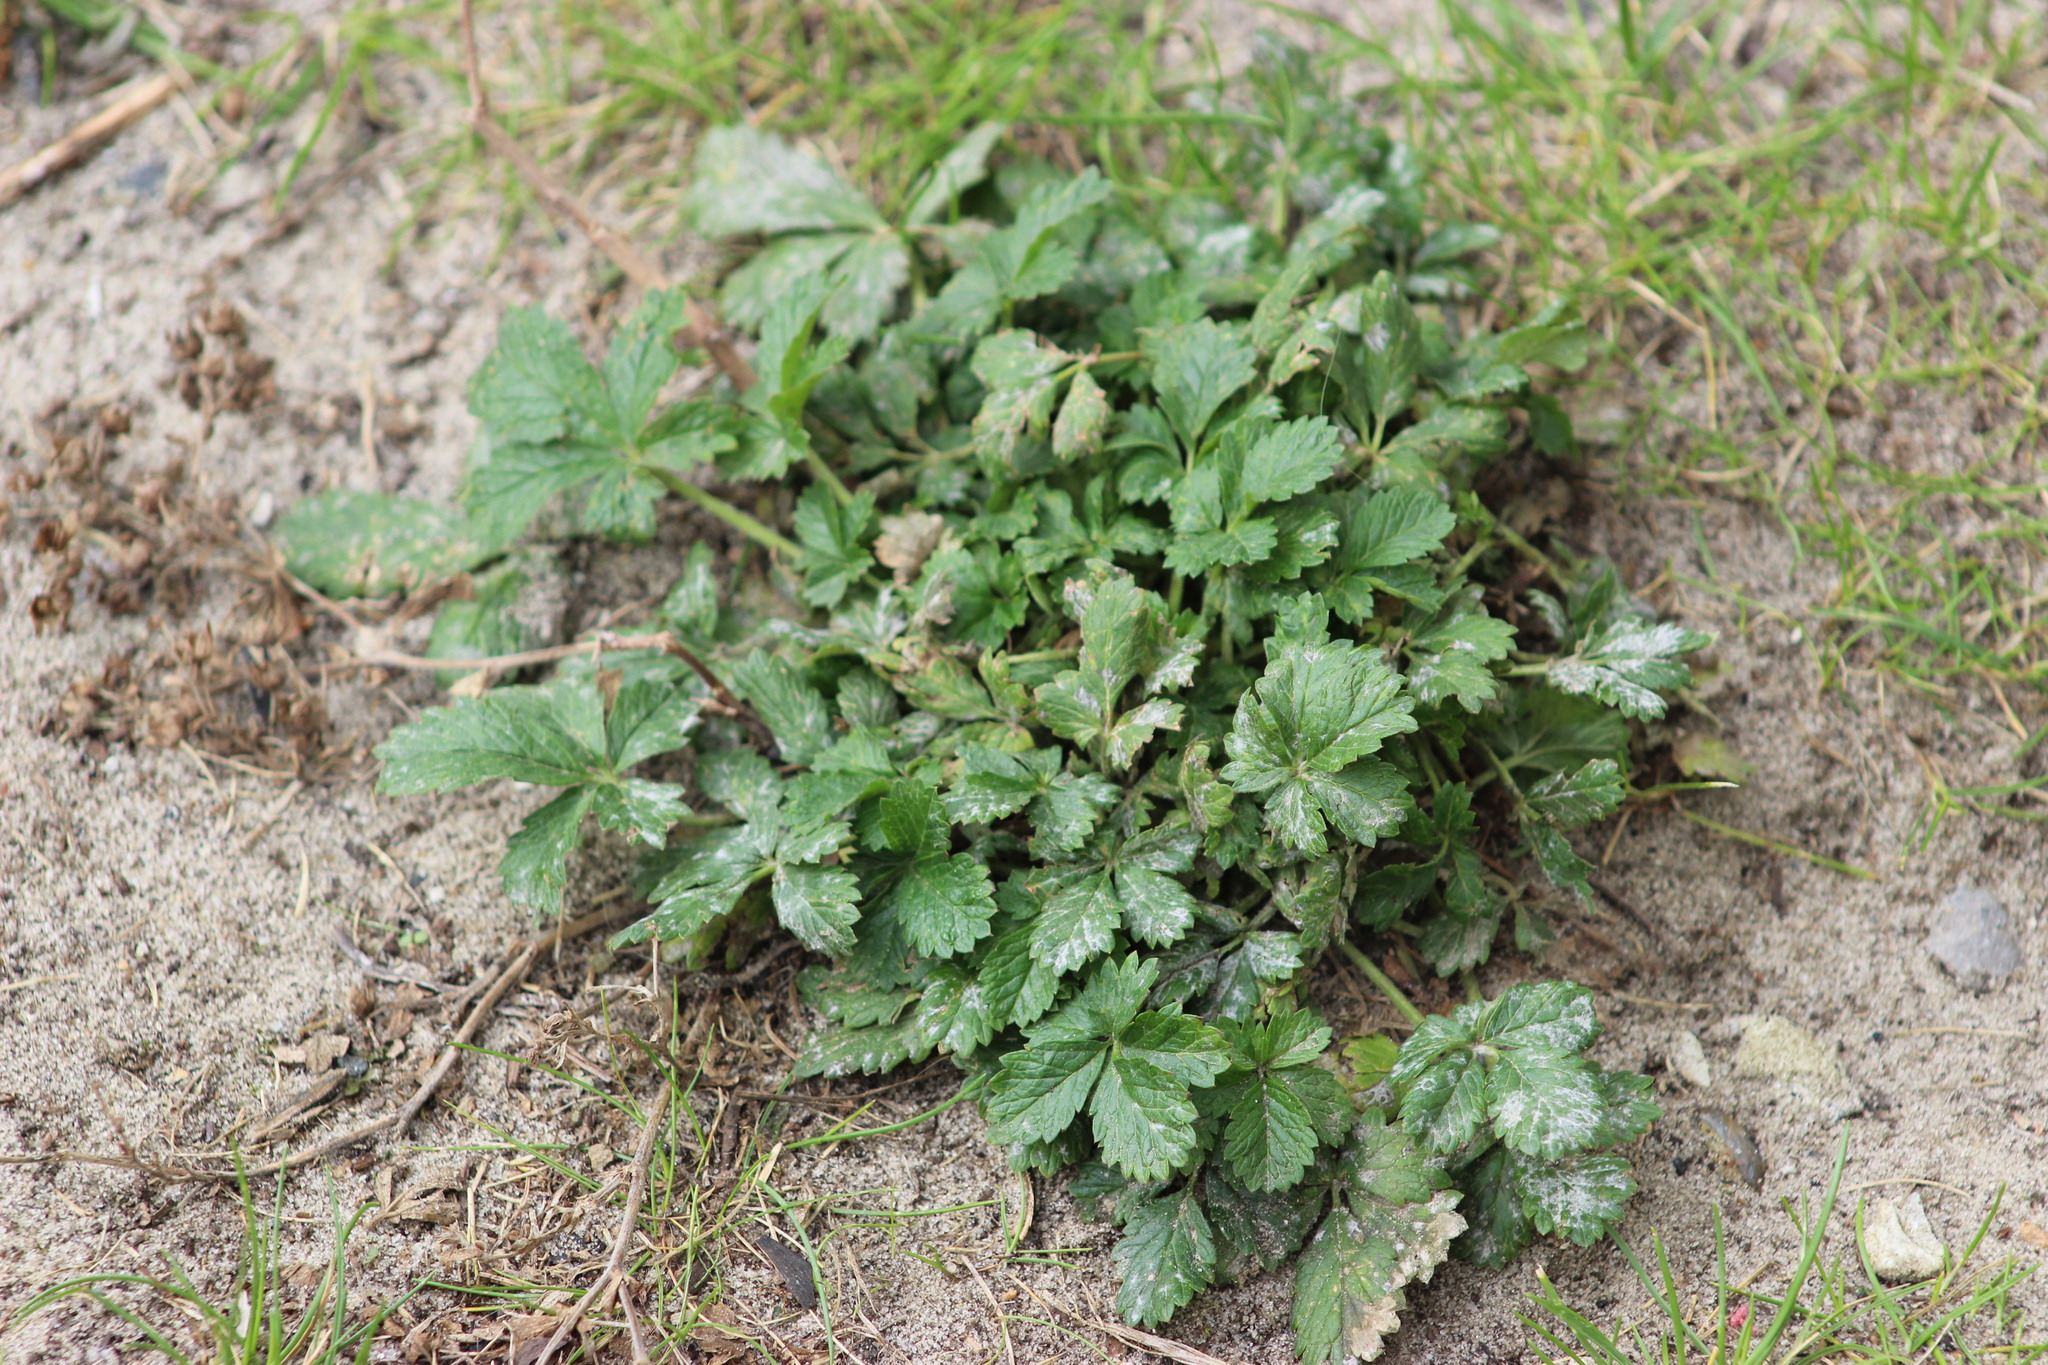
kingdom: Plantae
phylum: Tracheophyta
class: Magnoliopsida
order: Rosales
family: Rosaceae
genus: Potentilla
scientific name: Potentilla intermedia
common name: Downy cinquefoil
